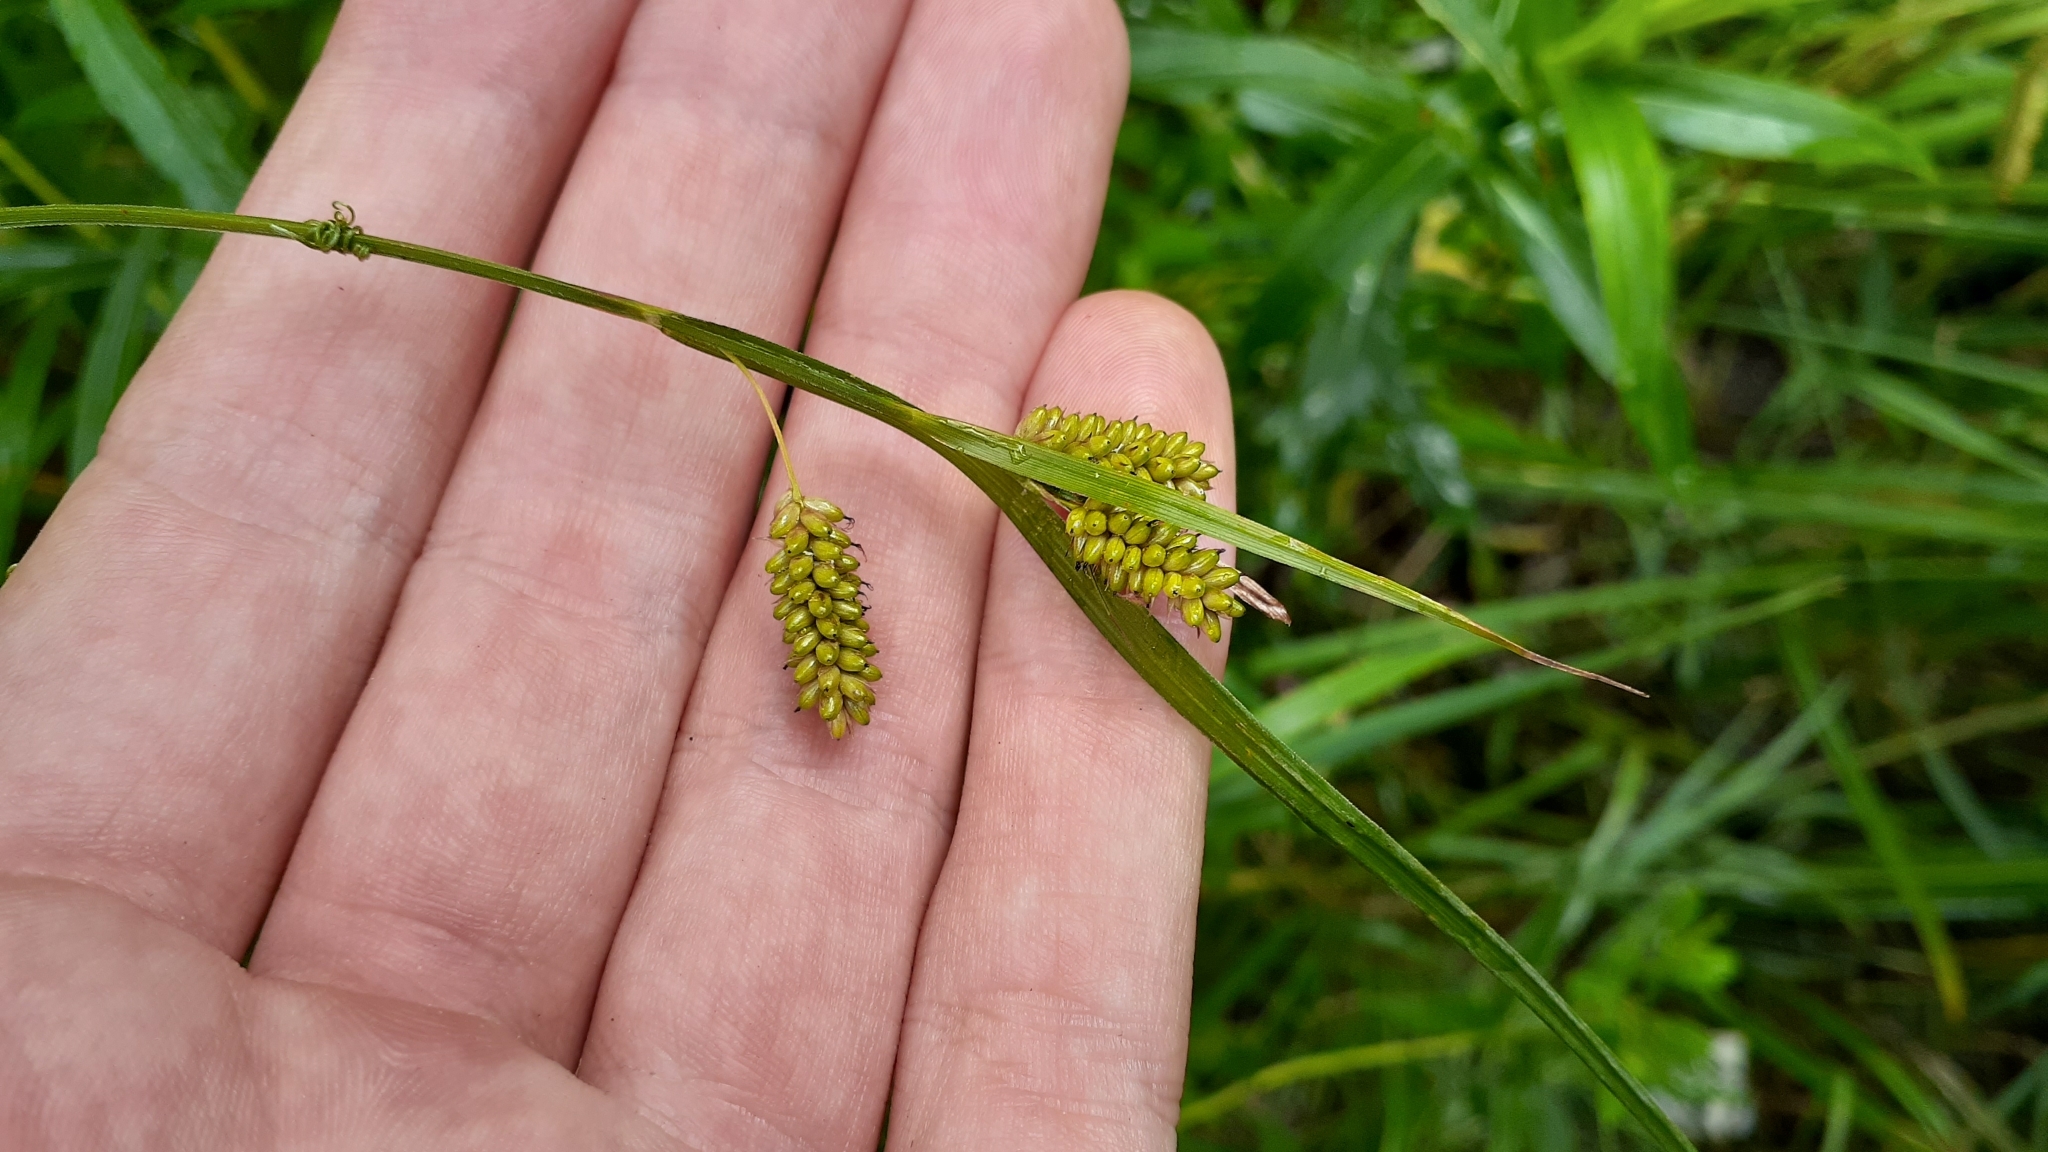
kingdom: Plantae
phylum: Tracheophyta
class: Liliopsida
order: Poales
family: Cyperaceae
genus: Carex
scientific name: Carex pallescens
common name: Pale sedge
